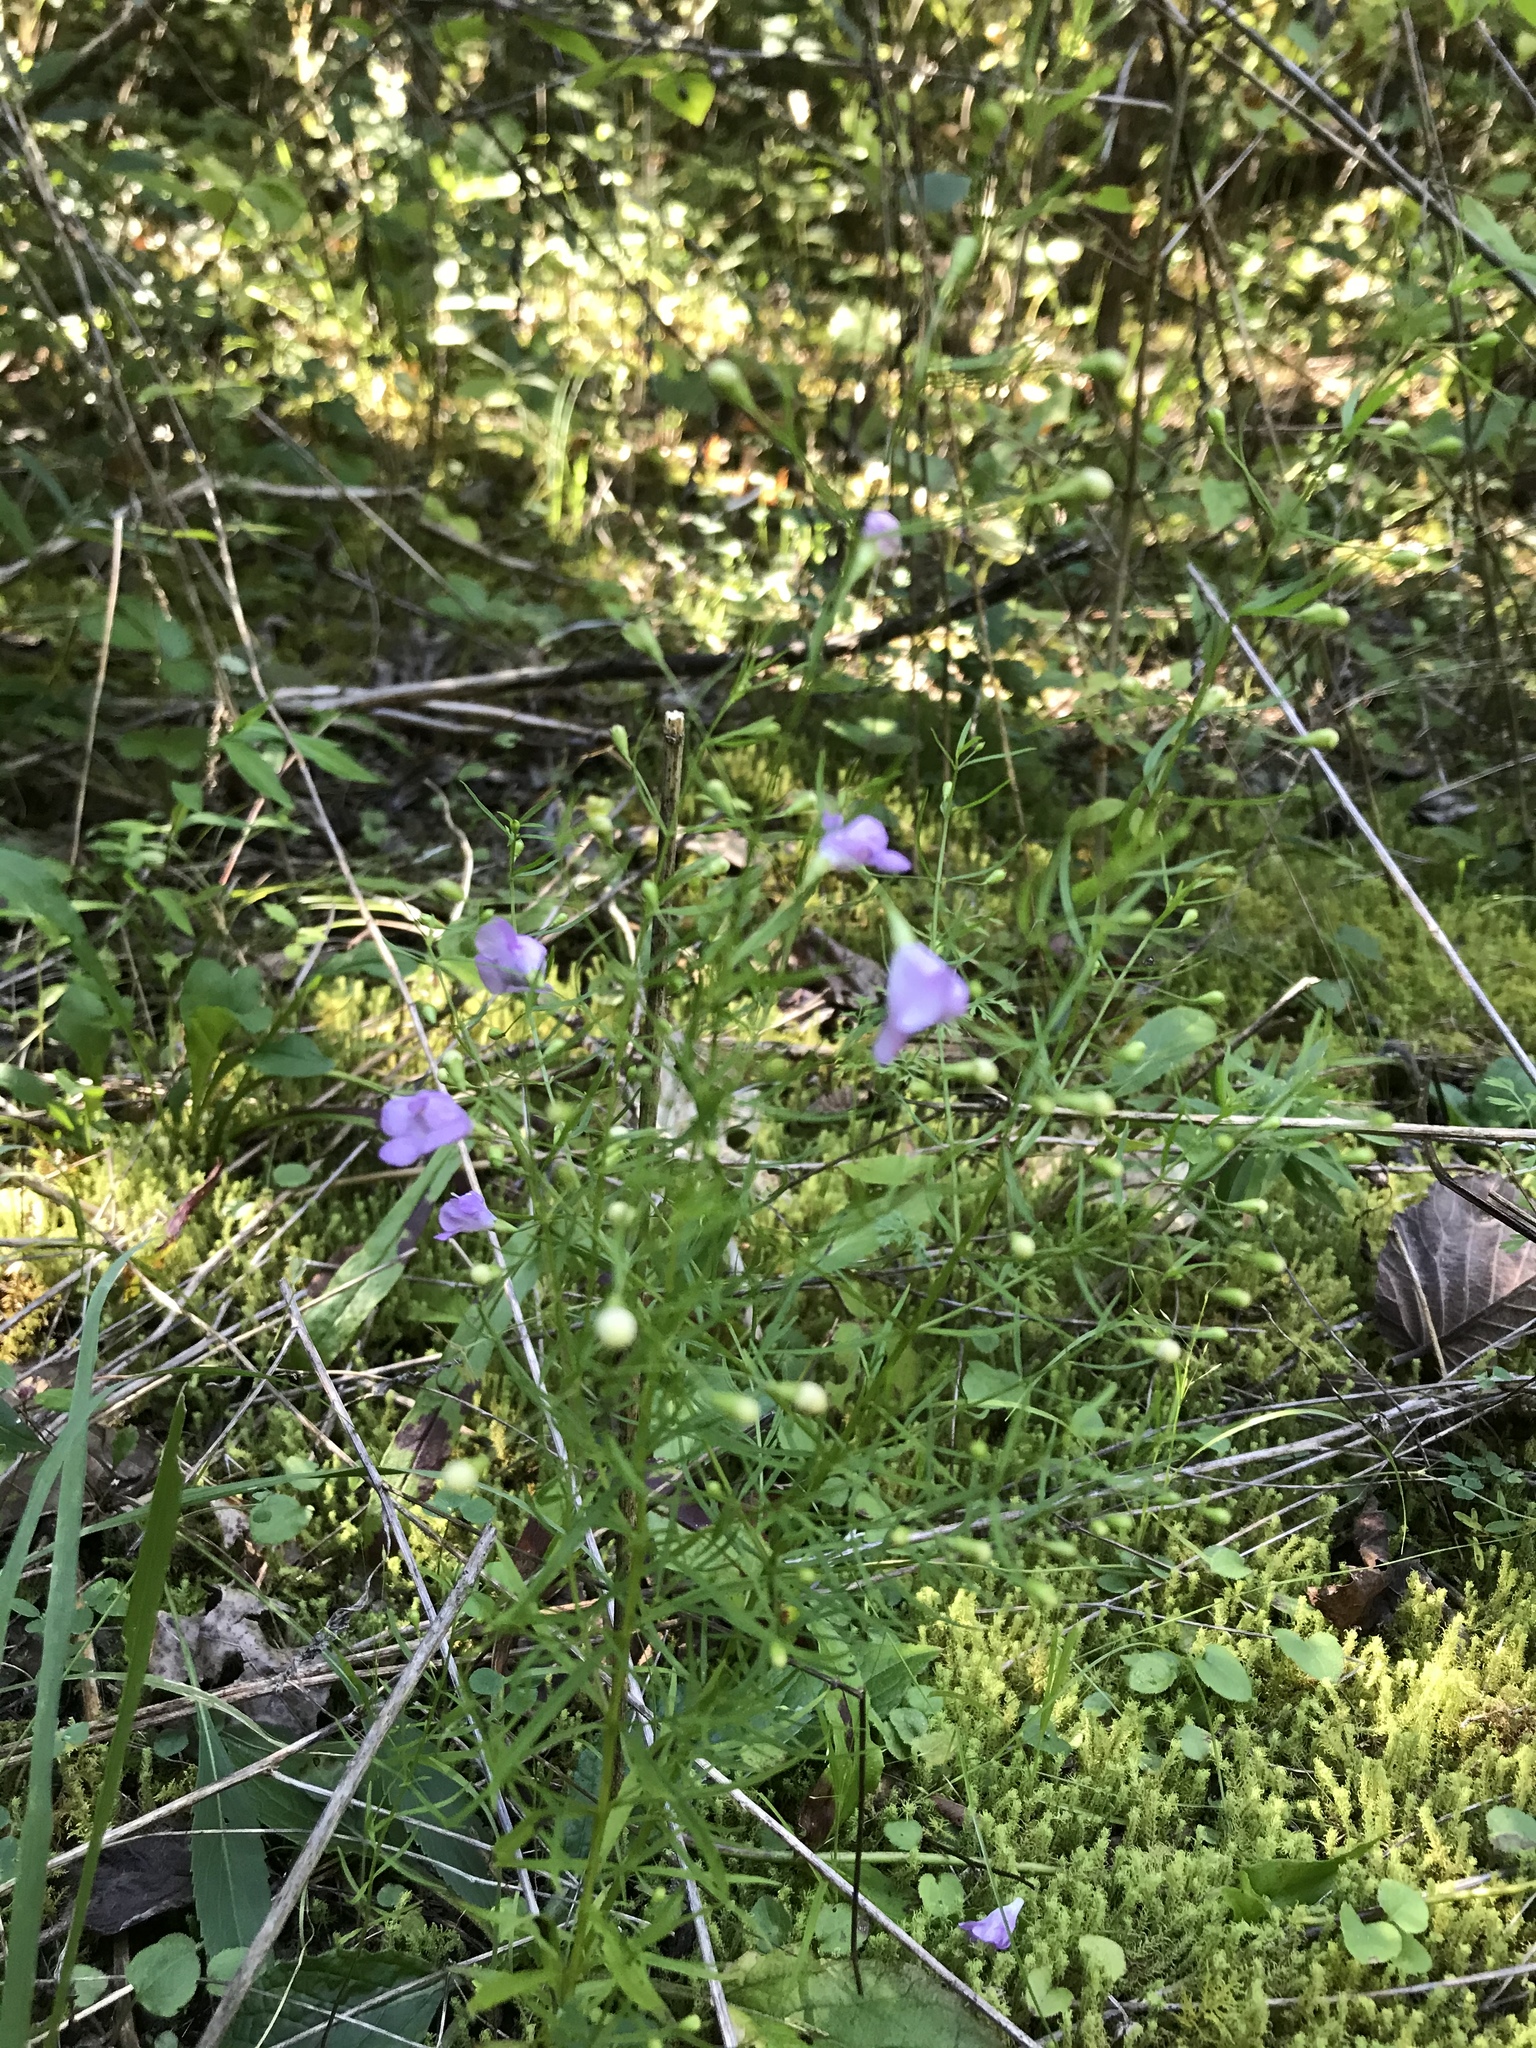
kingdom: Plantae
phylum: Tracheophyta
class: Magnoliopsida
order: Lamiales
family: Orobanchaceae
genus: Agalinis
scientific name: Agalinis tenuifolia
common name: Slender agalinis
